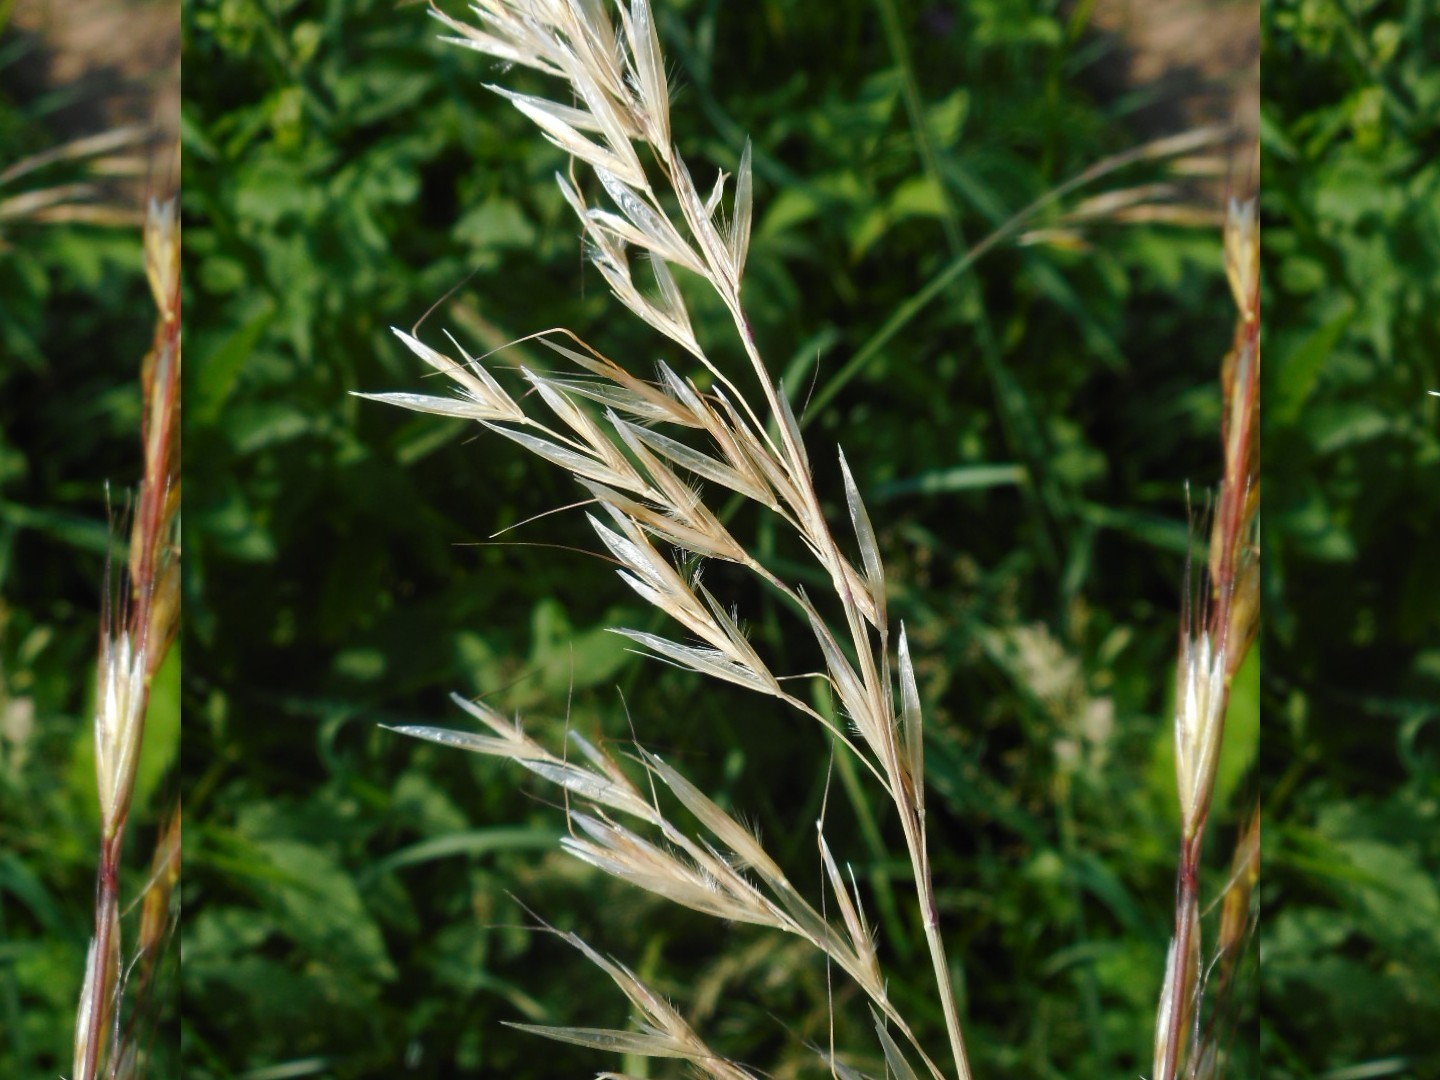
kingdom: Plantae
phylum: Tracheophyta
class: Liliopsida
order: Poales
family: Poaceae
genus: Avenula
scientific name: Avenula pubescens
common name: Downy alpine oatgrass
